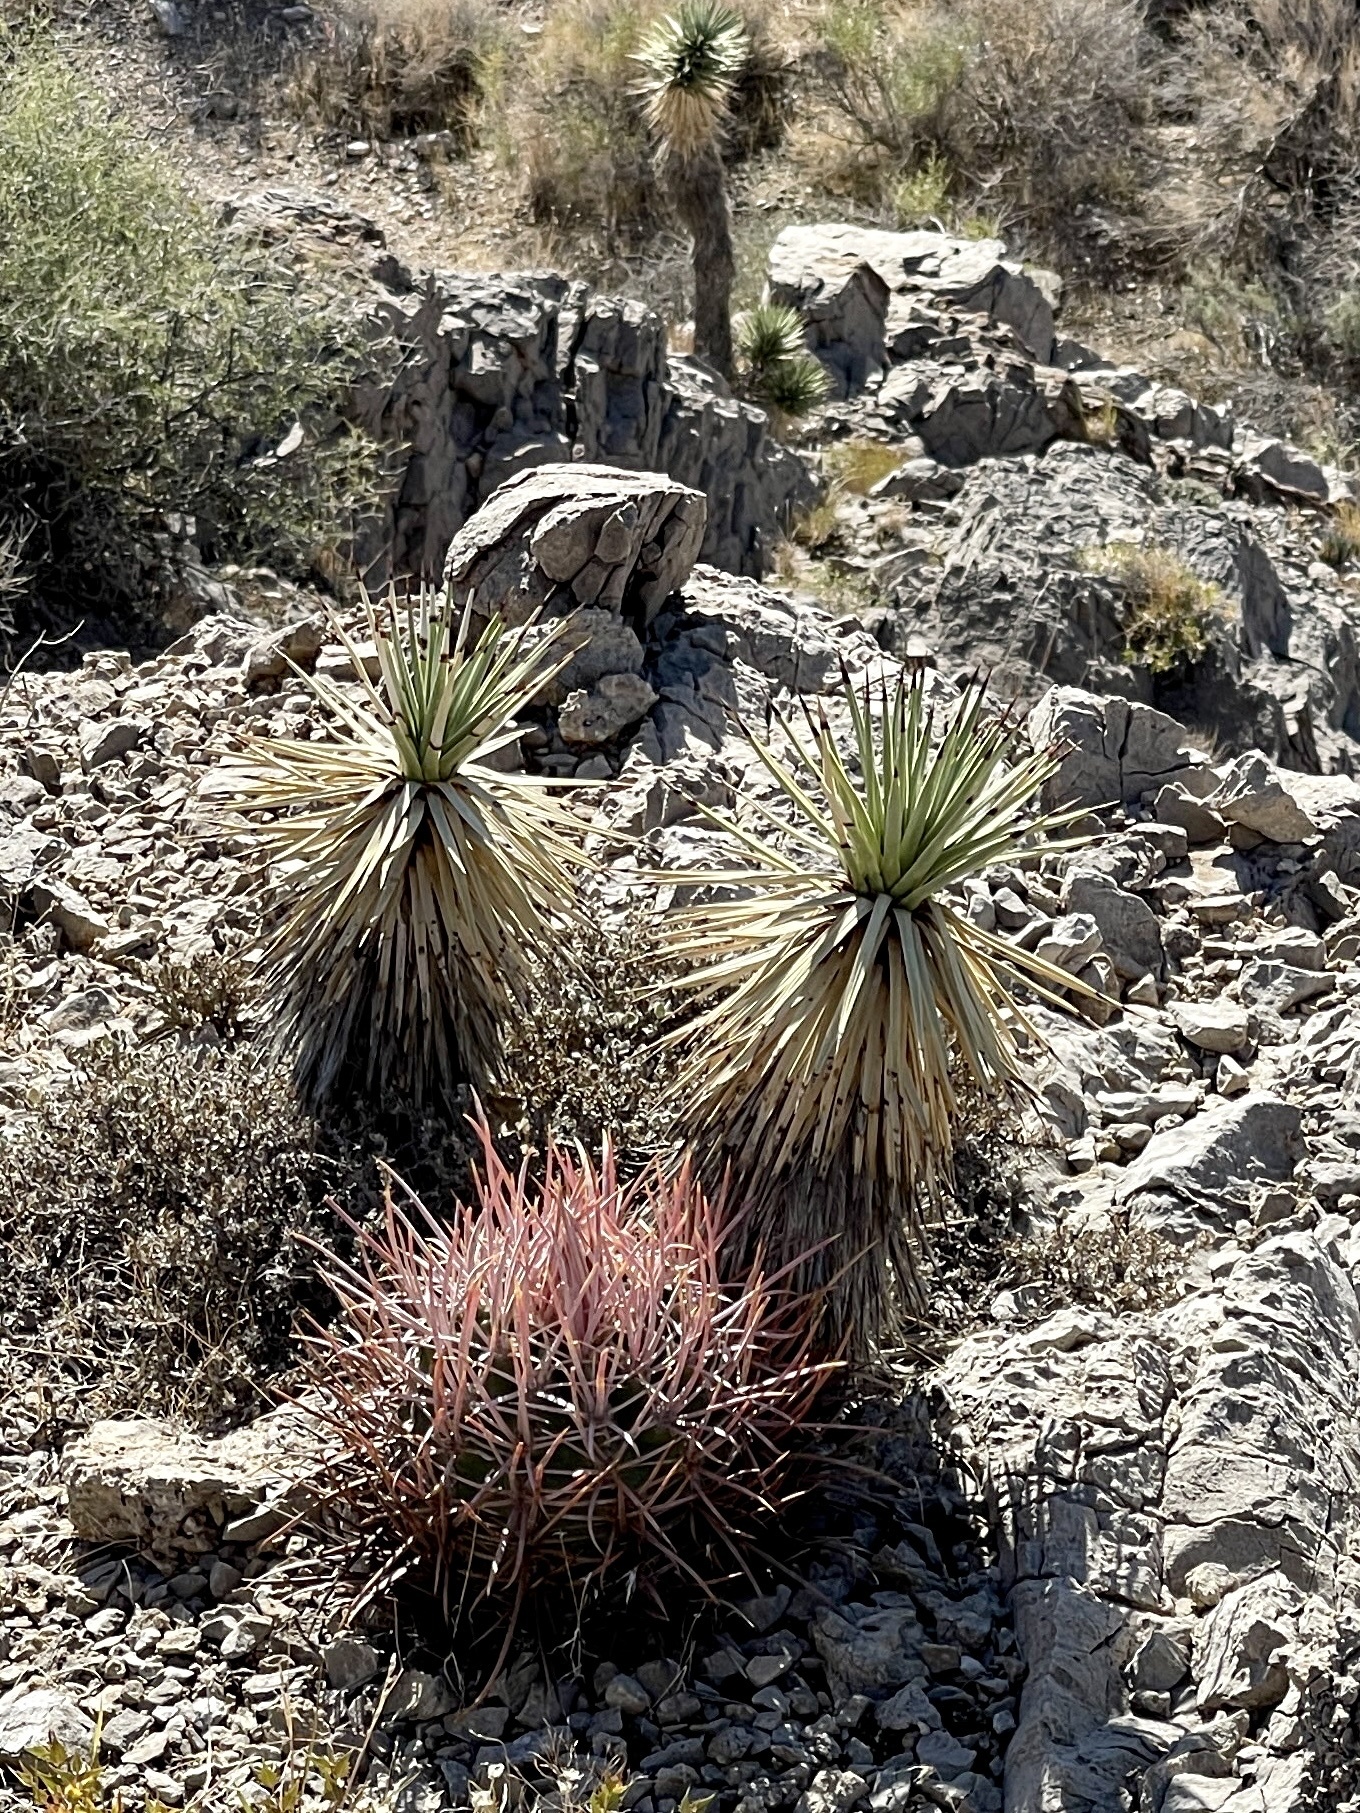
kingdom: Plantae
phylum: Tracheophyta
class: Liliopsida
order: Asparagales
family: Asparagaceae
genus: Yucca
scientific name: Yucca brevifolia
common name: Joshua tree
